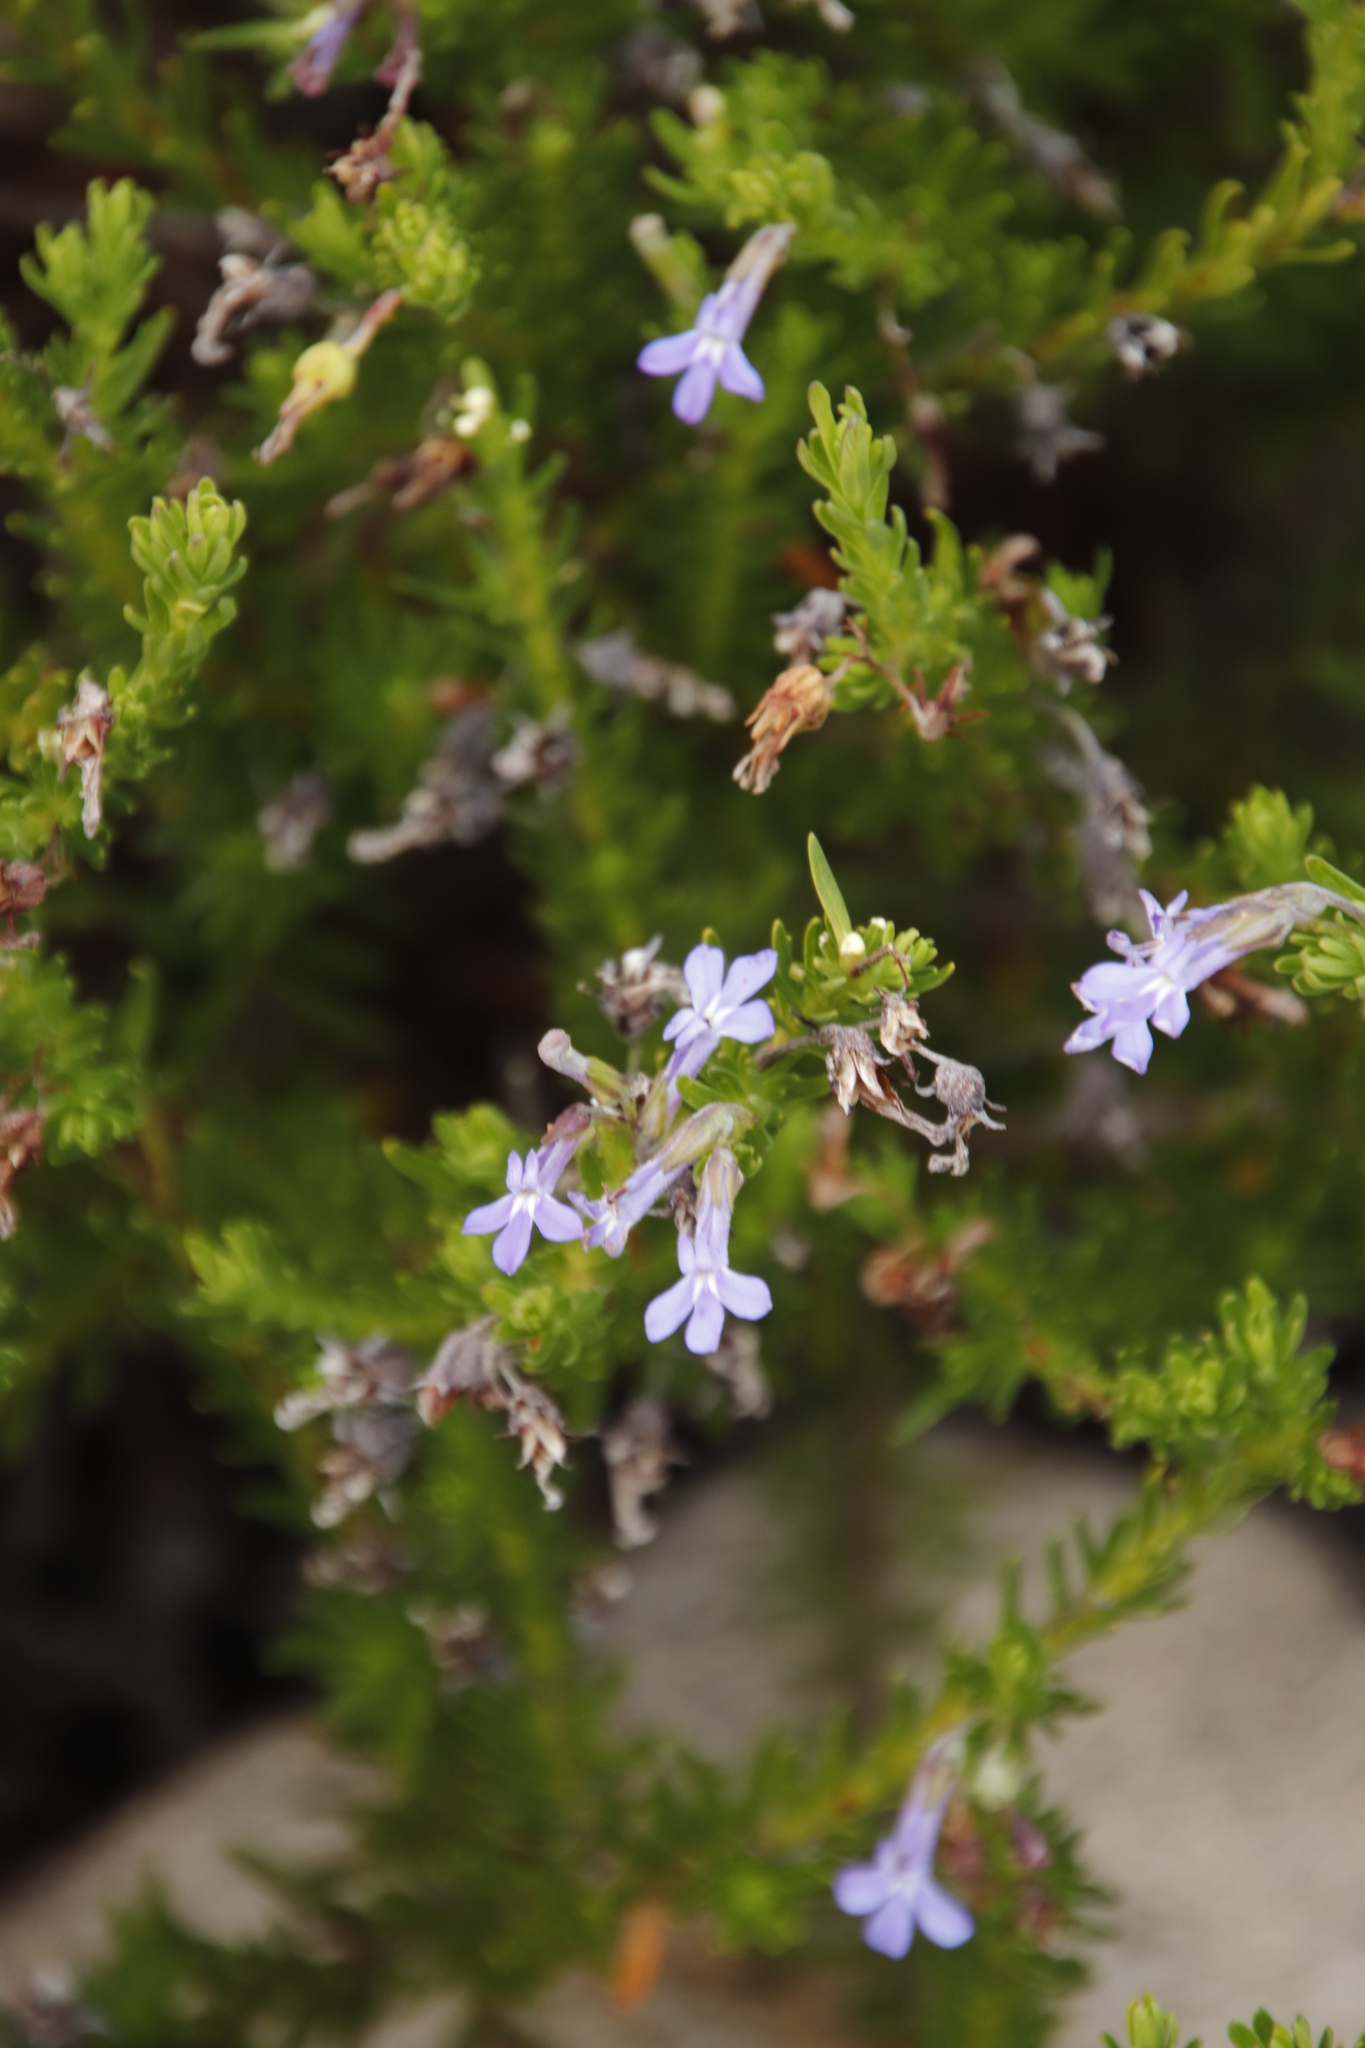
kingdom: Plantae
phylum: Tracheophyta
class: Magnoliopsida
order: Asterales
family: Campanulaceae
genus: Lobelia
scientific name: Lobelia pinifolia
